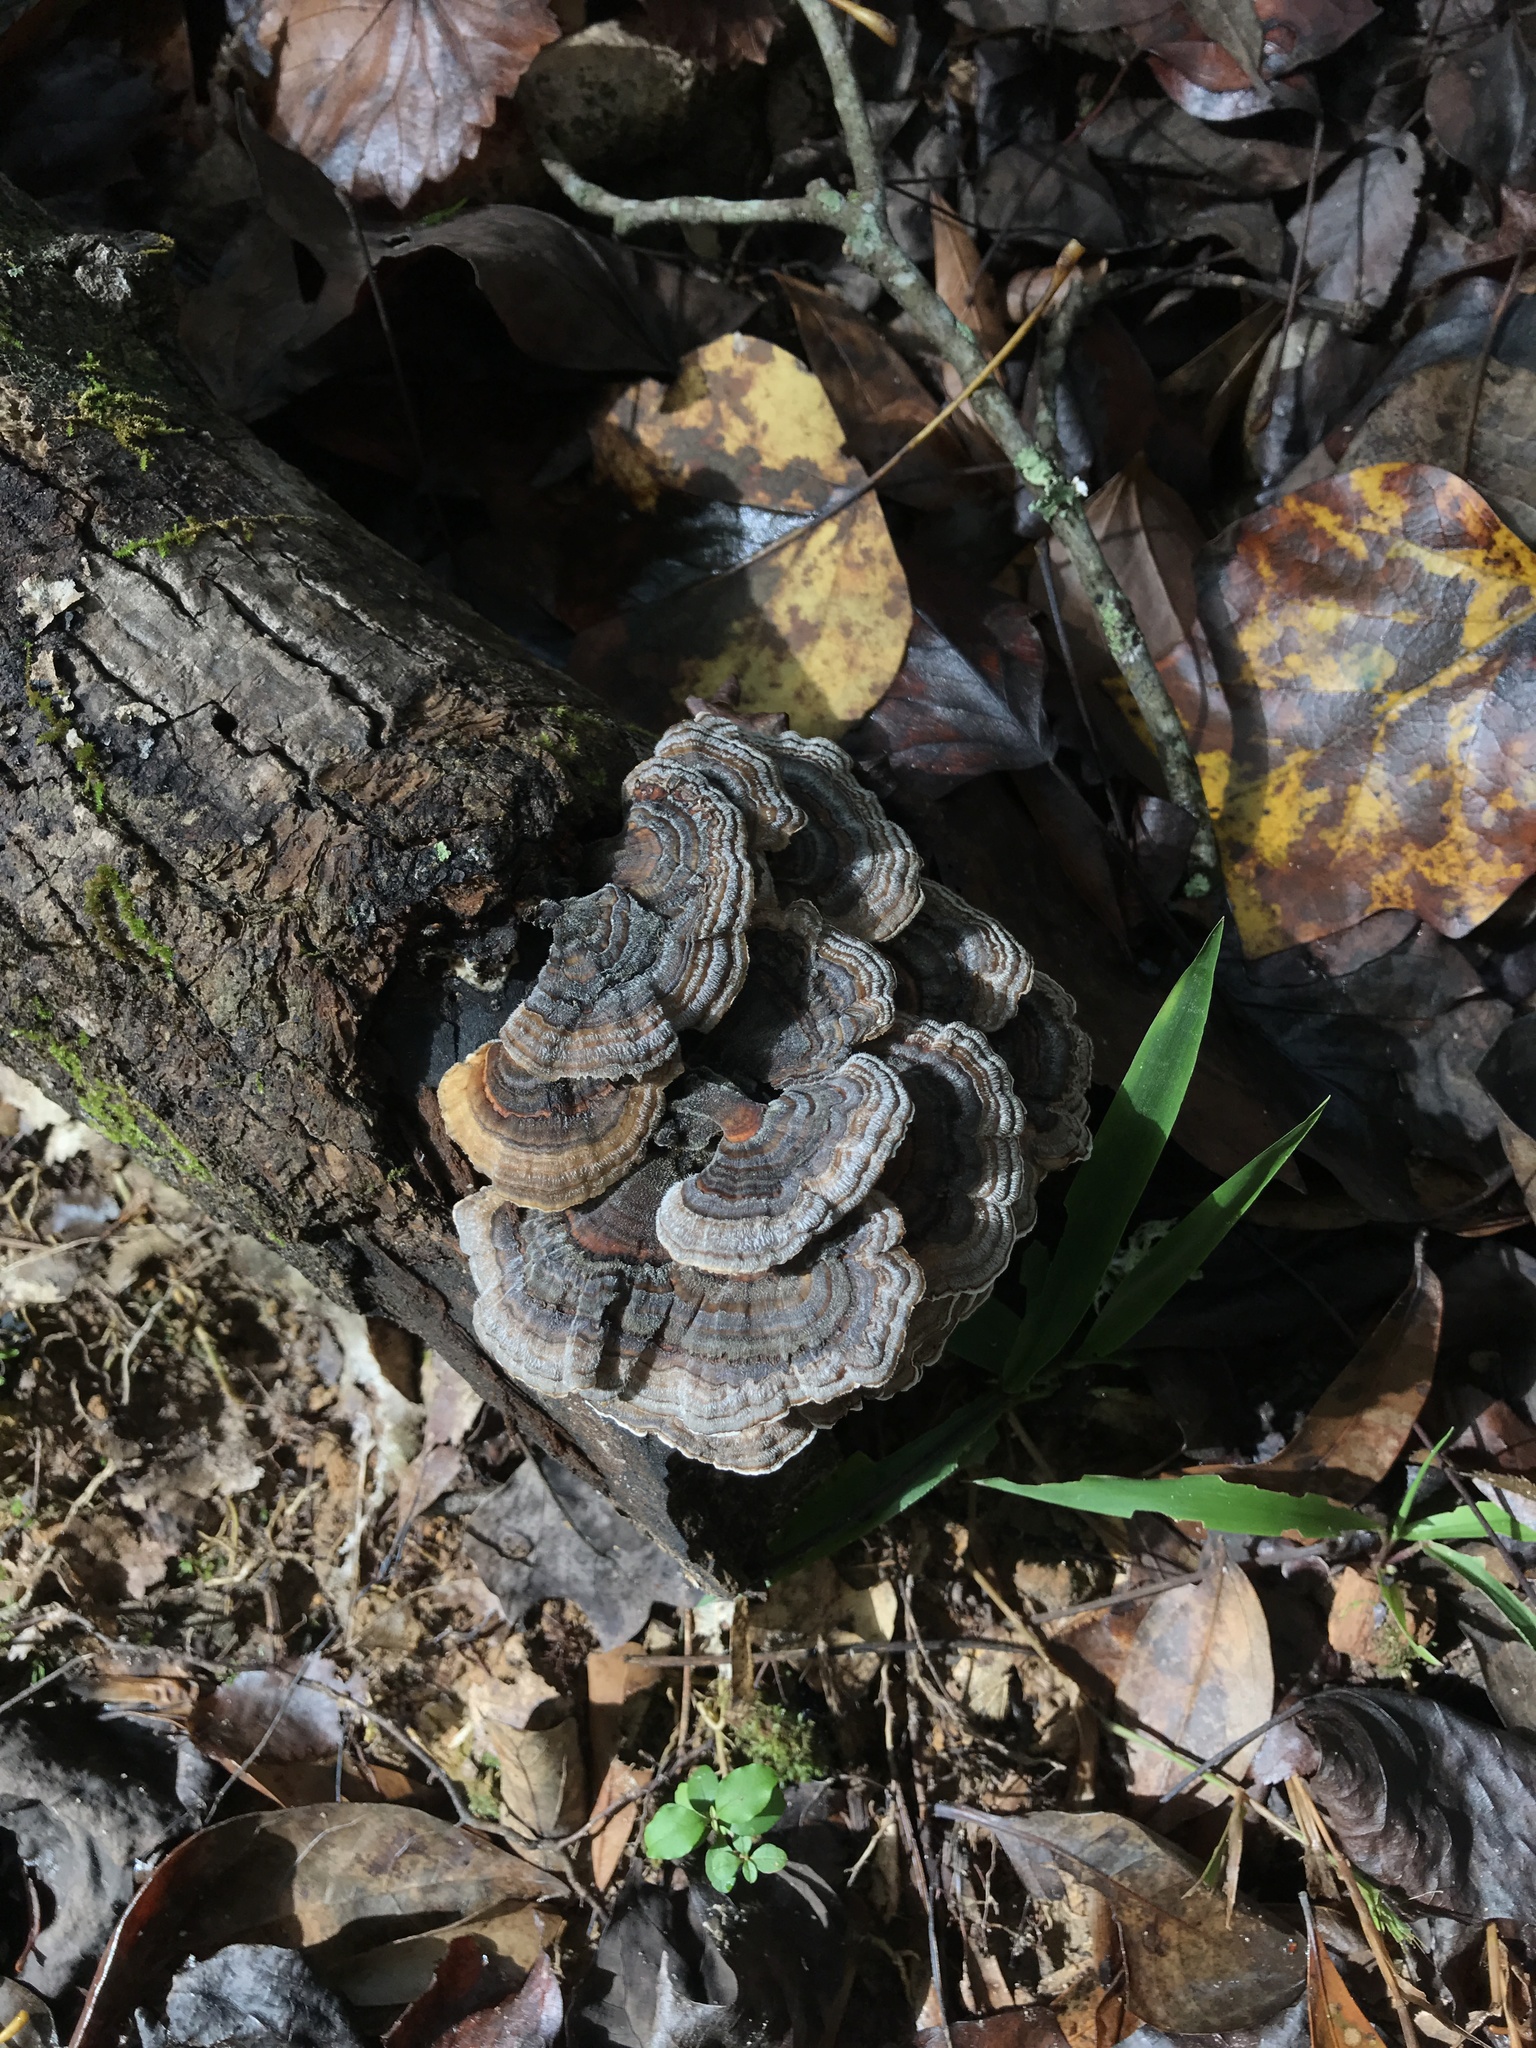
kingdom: Fungi
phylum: Basidiomycota
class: Agaricomycetes
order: Polyporales
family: Polyporaceae
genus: Trametes
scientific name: Trametes versicolor
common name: Turkeytail
